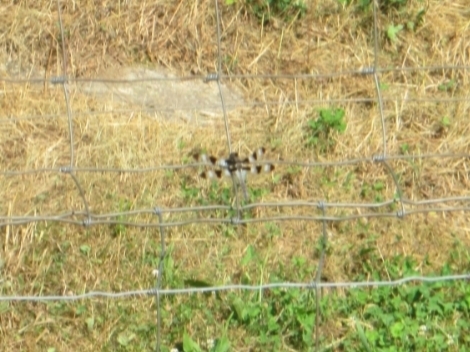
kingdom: Animalia
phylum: Arthropoda
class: Insecta
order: Odonata
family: Libellulidae
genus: Libellula
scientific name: Libellula pulchella
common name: Twelve-spotted skimmer
